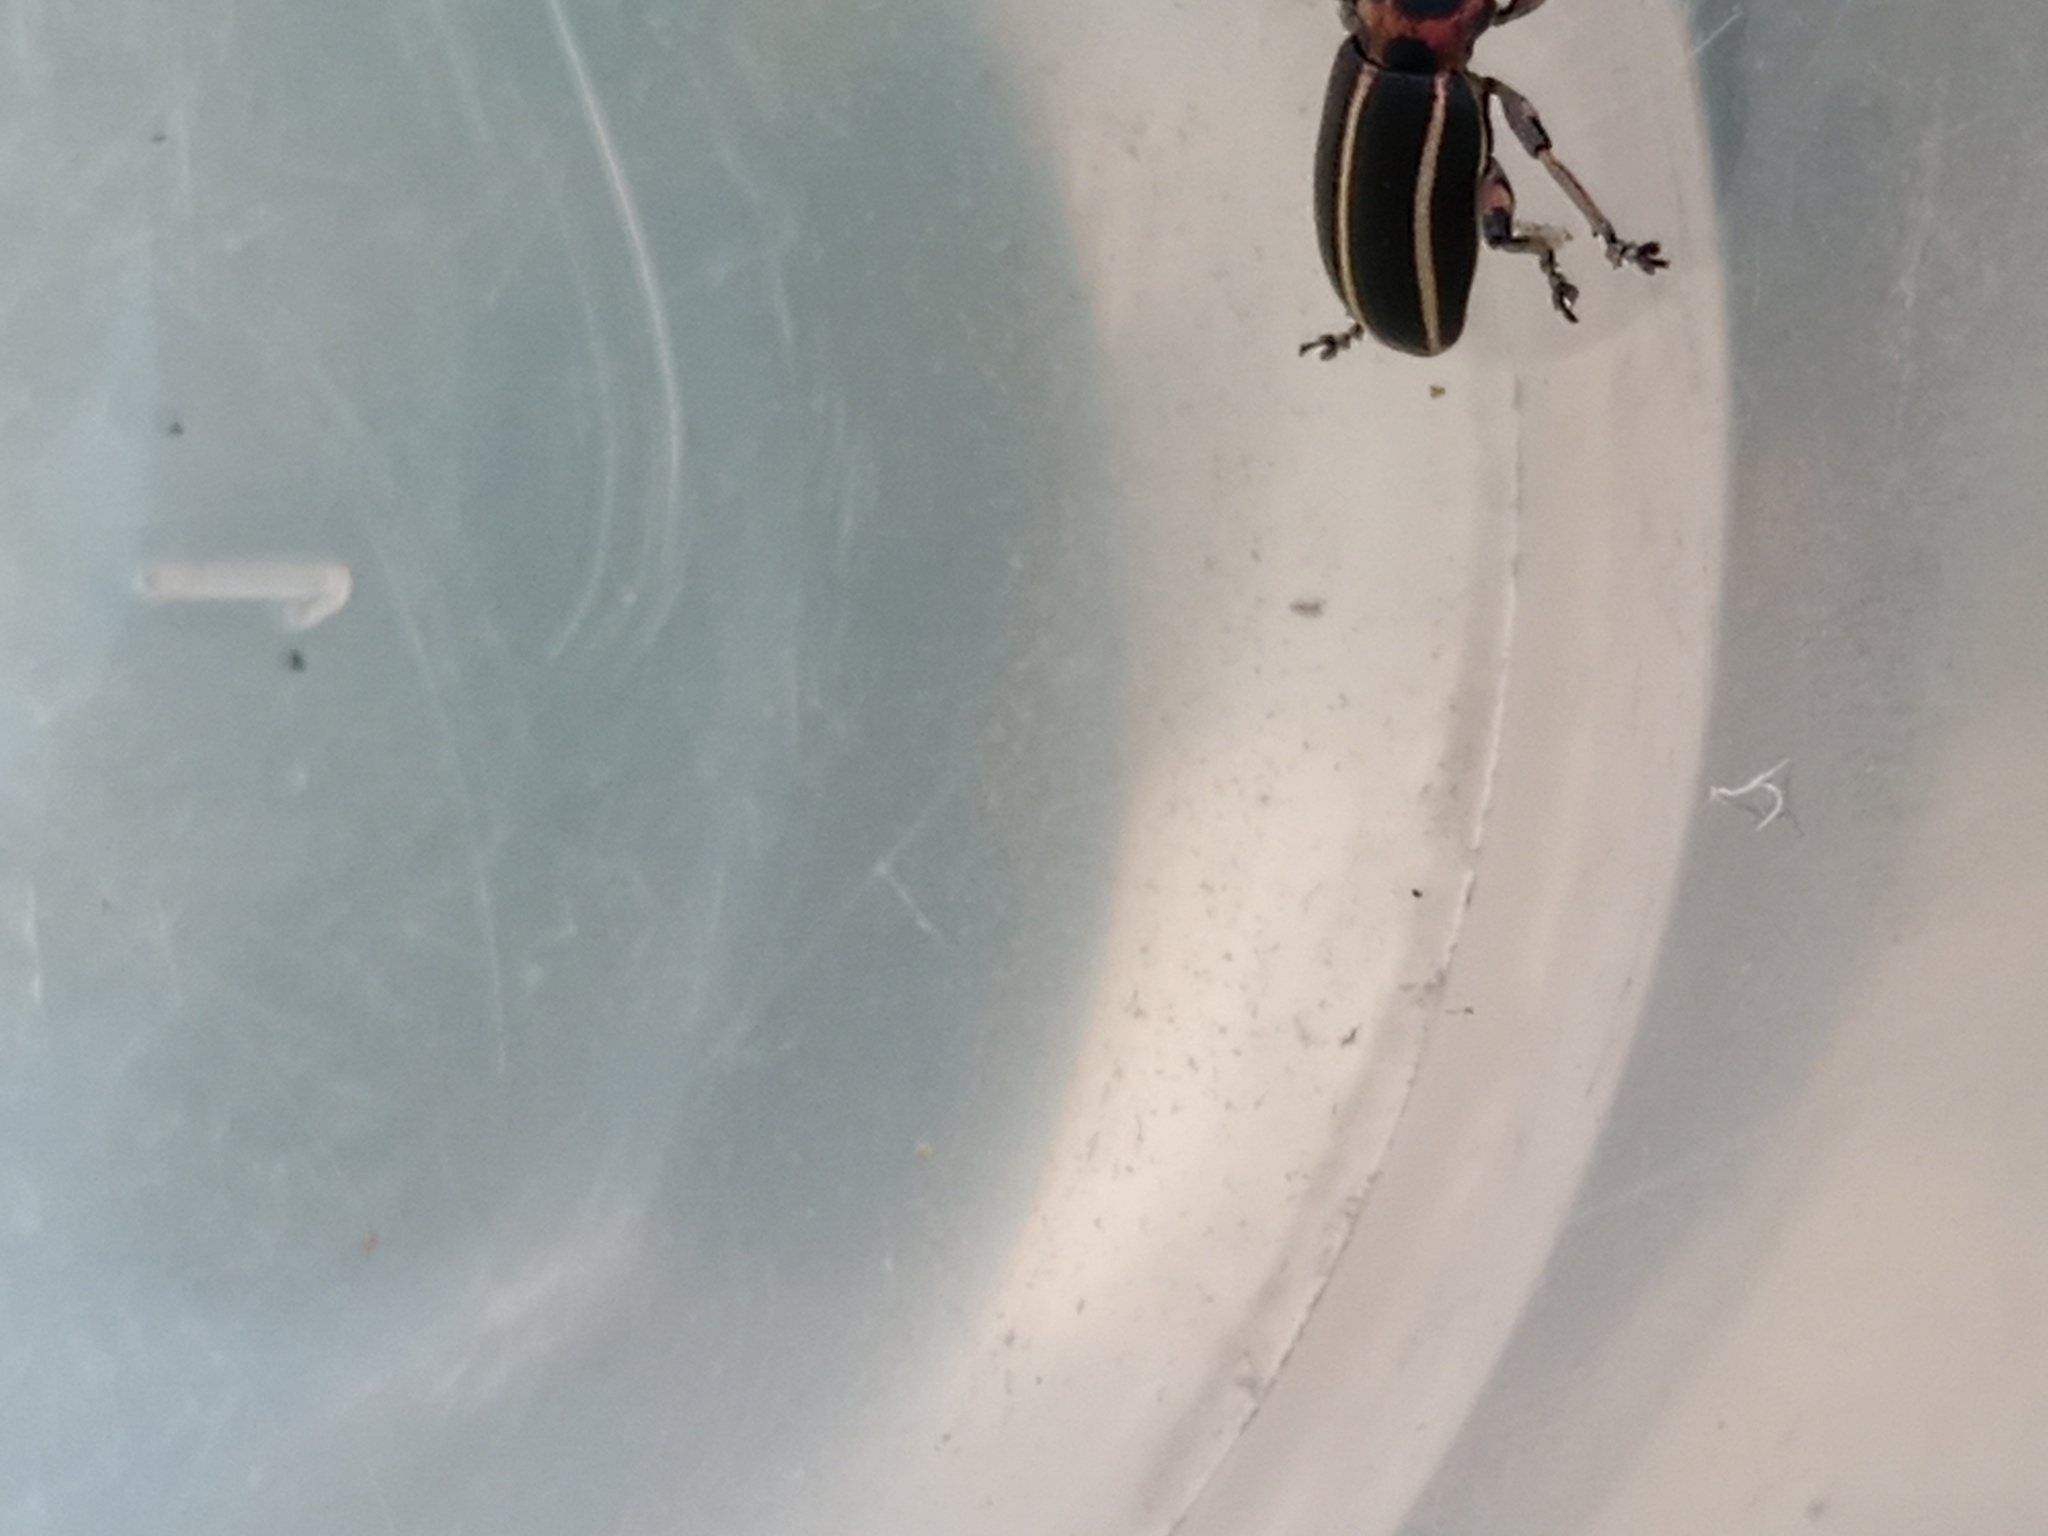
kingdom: Animalia
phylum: Arthropoda
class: Insecta
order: Coleoptera
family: Curculionidae
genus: Eudiagogus
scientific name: Eudiagogus episcopalis
